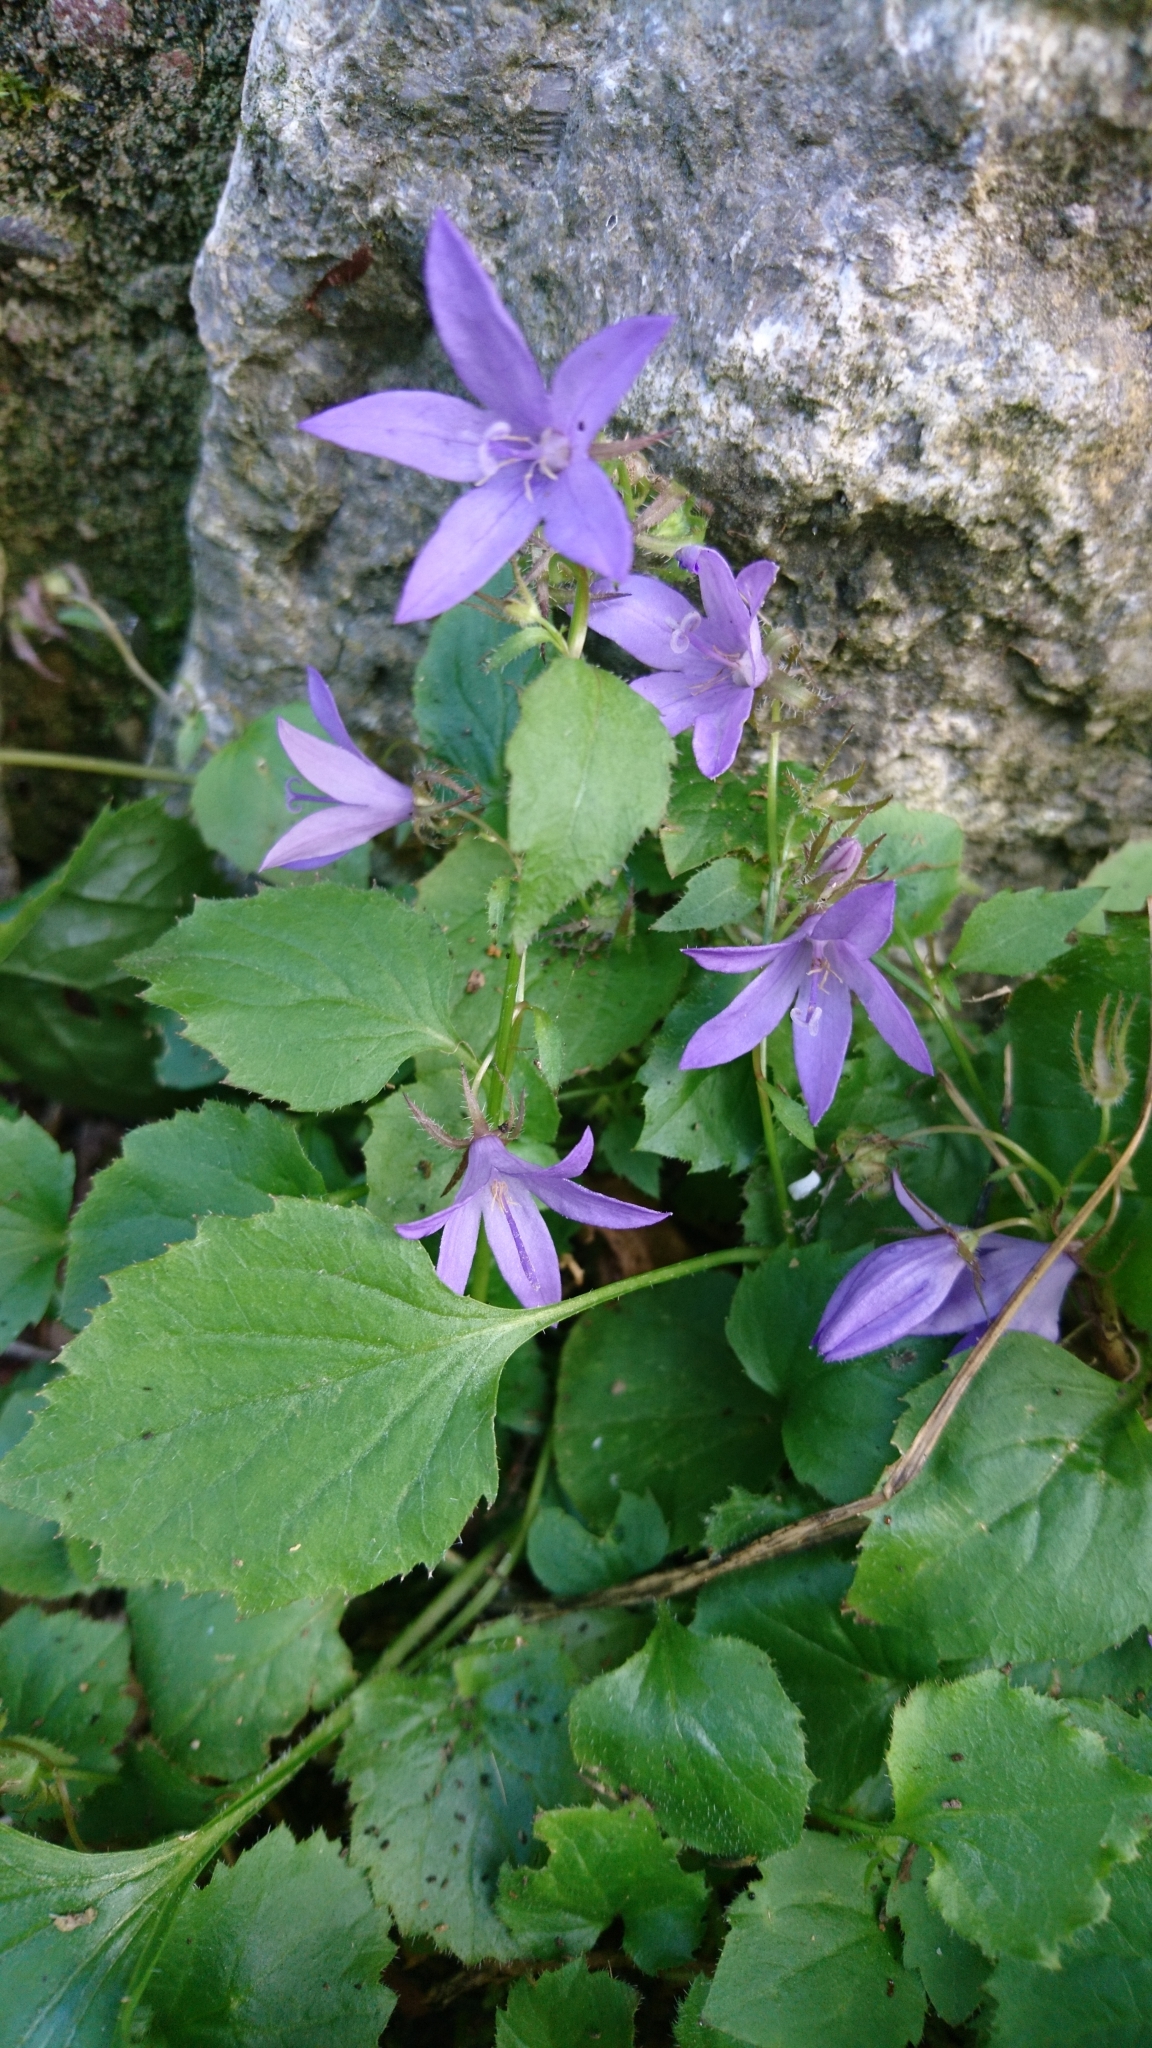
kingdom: Plantae
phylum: Tracheophyta
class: Magnoliopsida
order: Asterales
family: Campanulaceae
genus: Campanula
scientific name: Campanula poscharskyana
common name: Trailing bellflower
